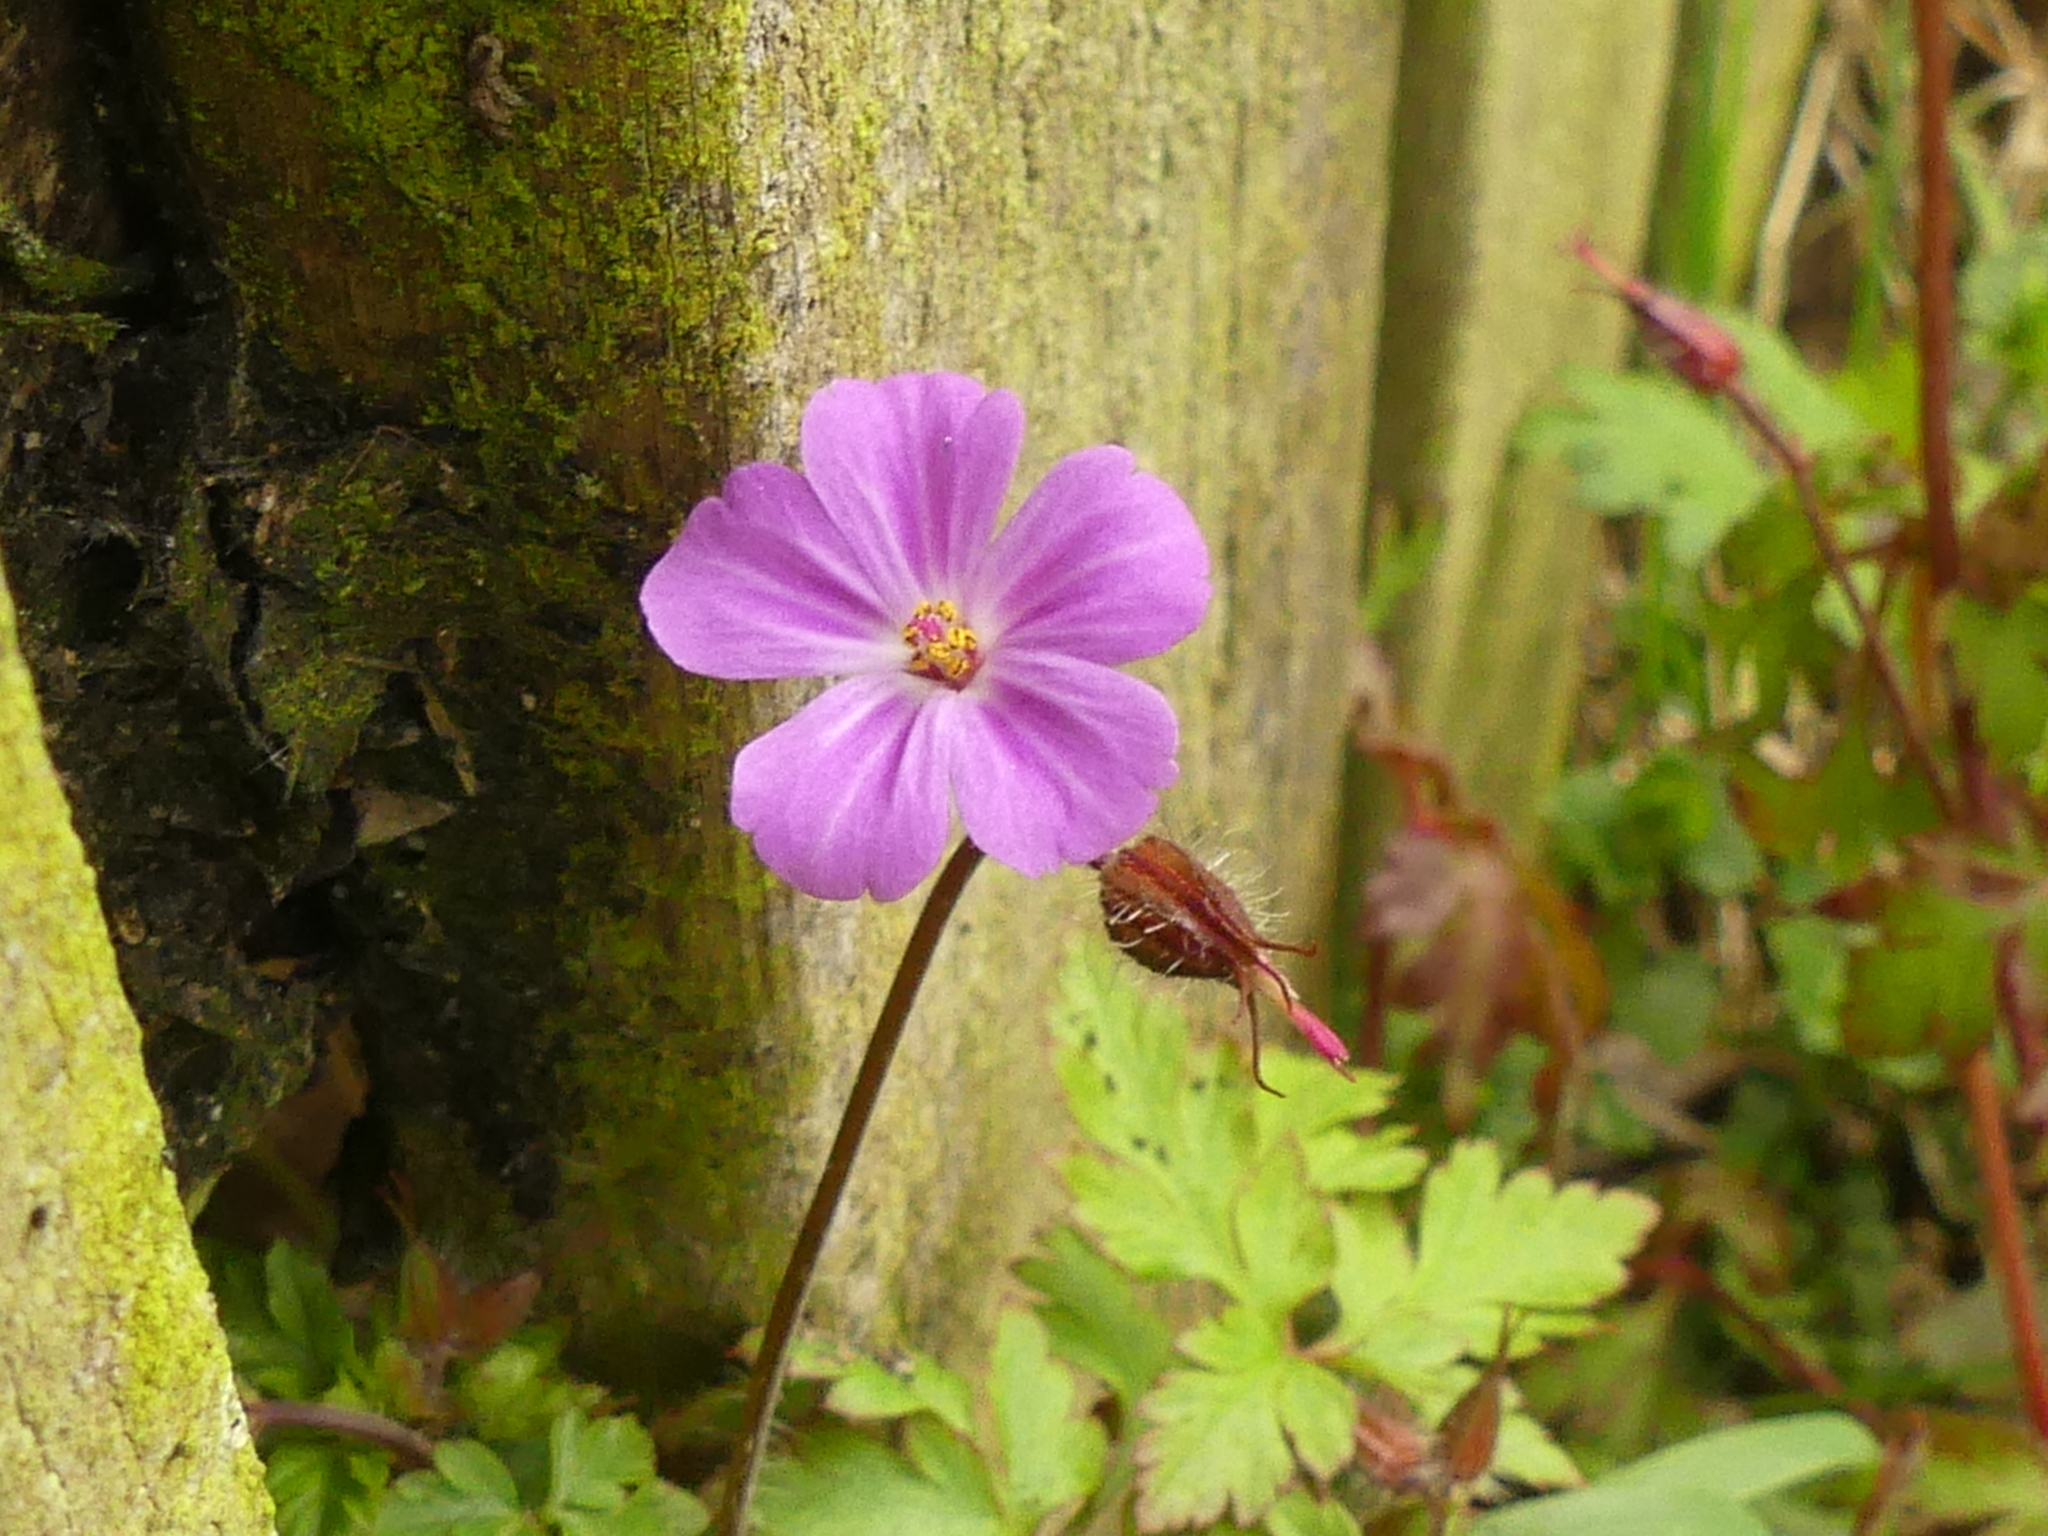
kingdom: Plantae
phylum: Tracheophyta
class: Magnoliopsida
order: Geraniales
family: Geraniaceae
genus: Geranium
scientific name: Geranium robertianum
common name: Herb-robert
